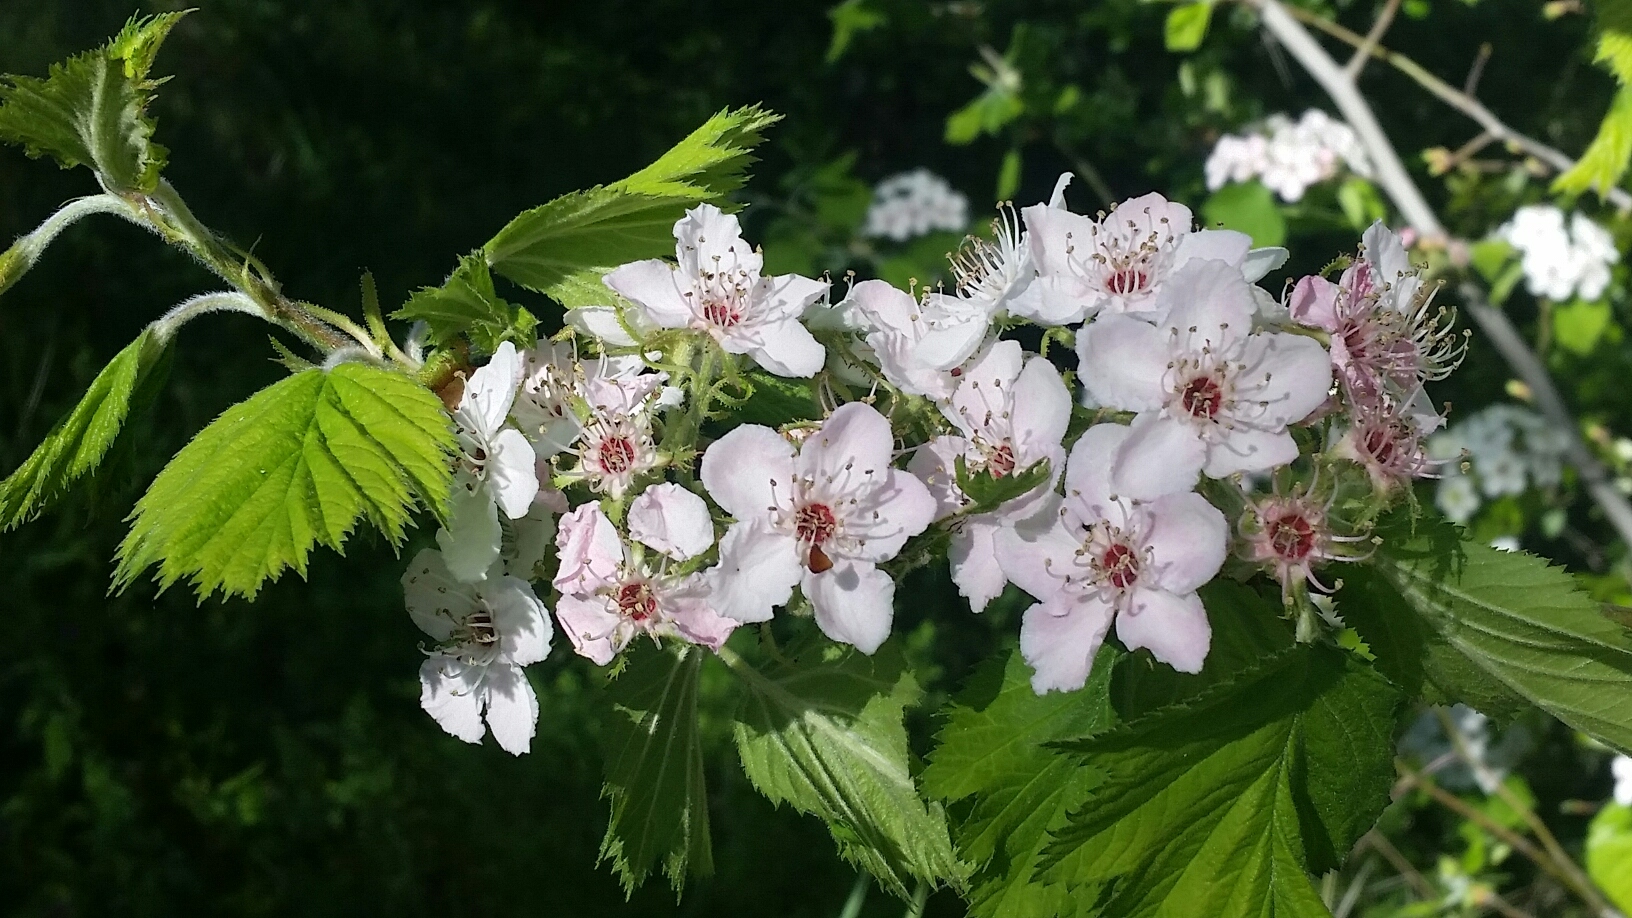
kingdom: Plantae
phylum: Tracheophyta
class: Magnoliopsida
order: Rosales
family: Rosaceae
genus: Crataegus
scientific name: Crataegus monogyna
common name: Hawthorn
